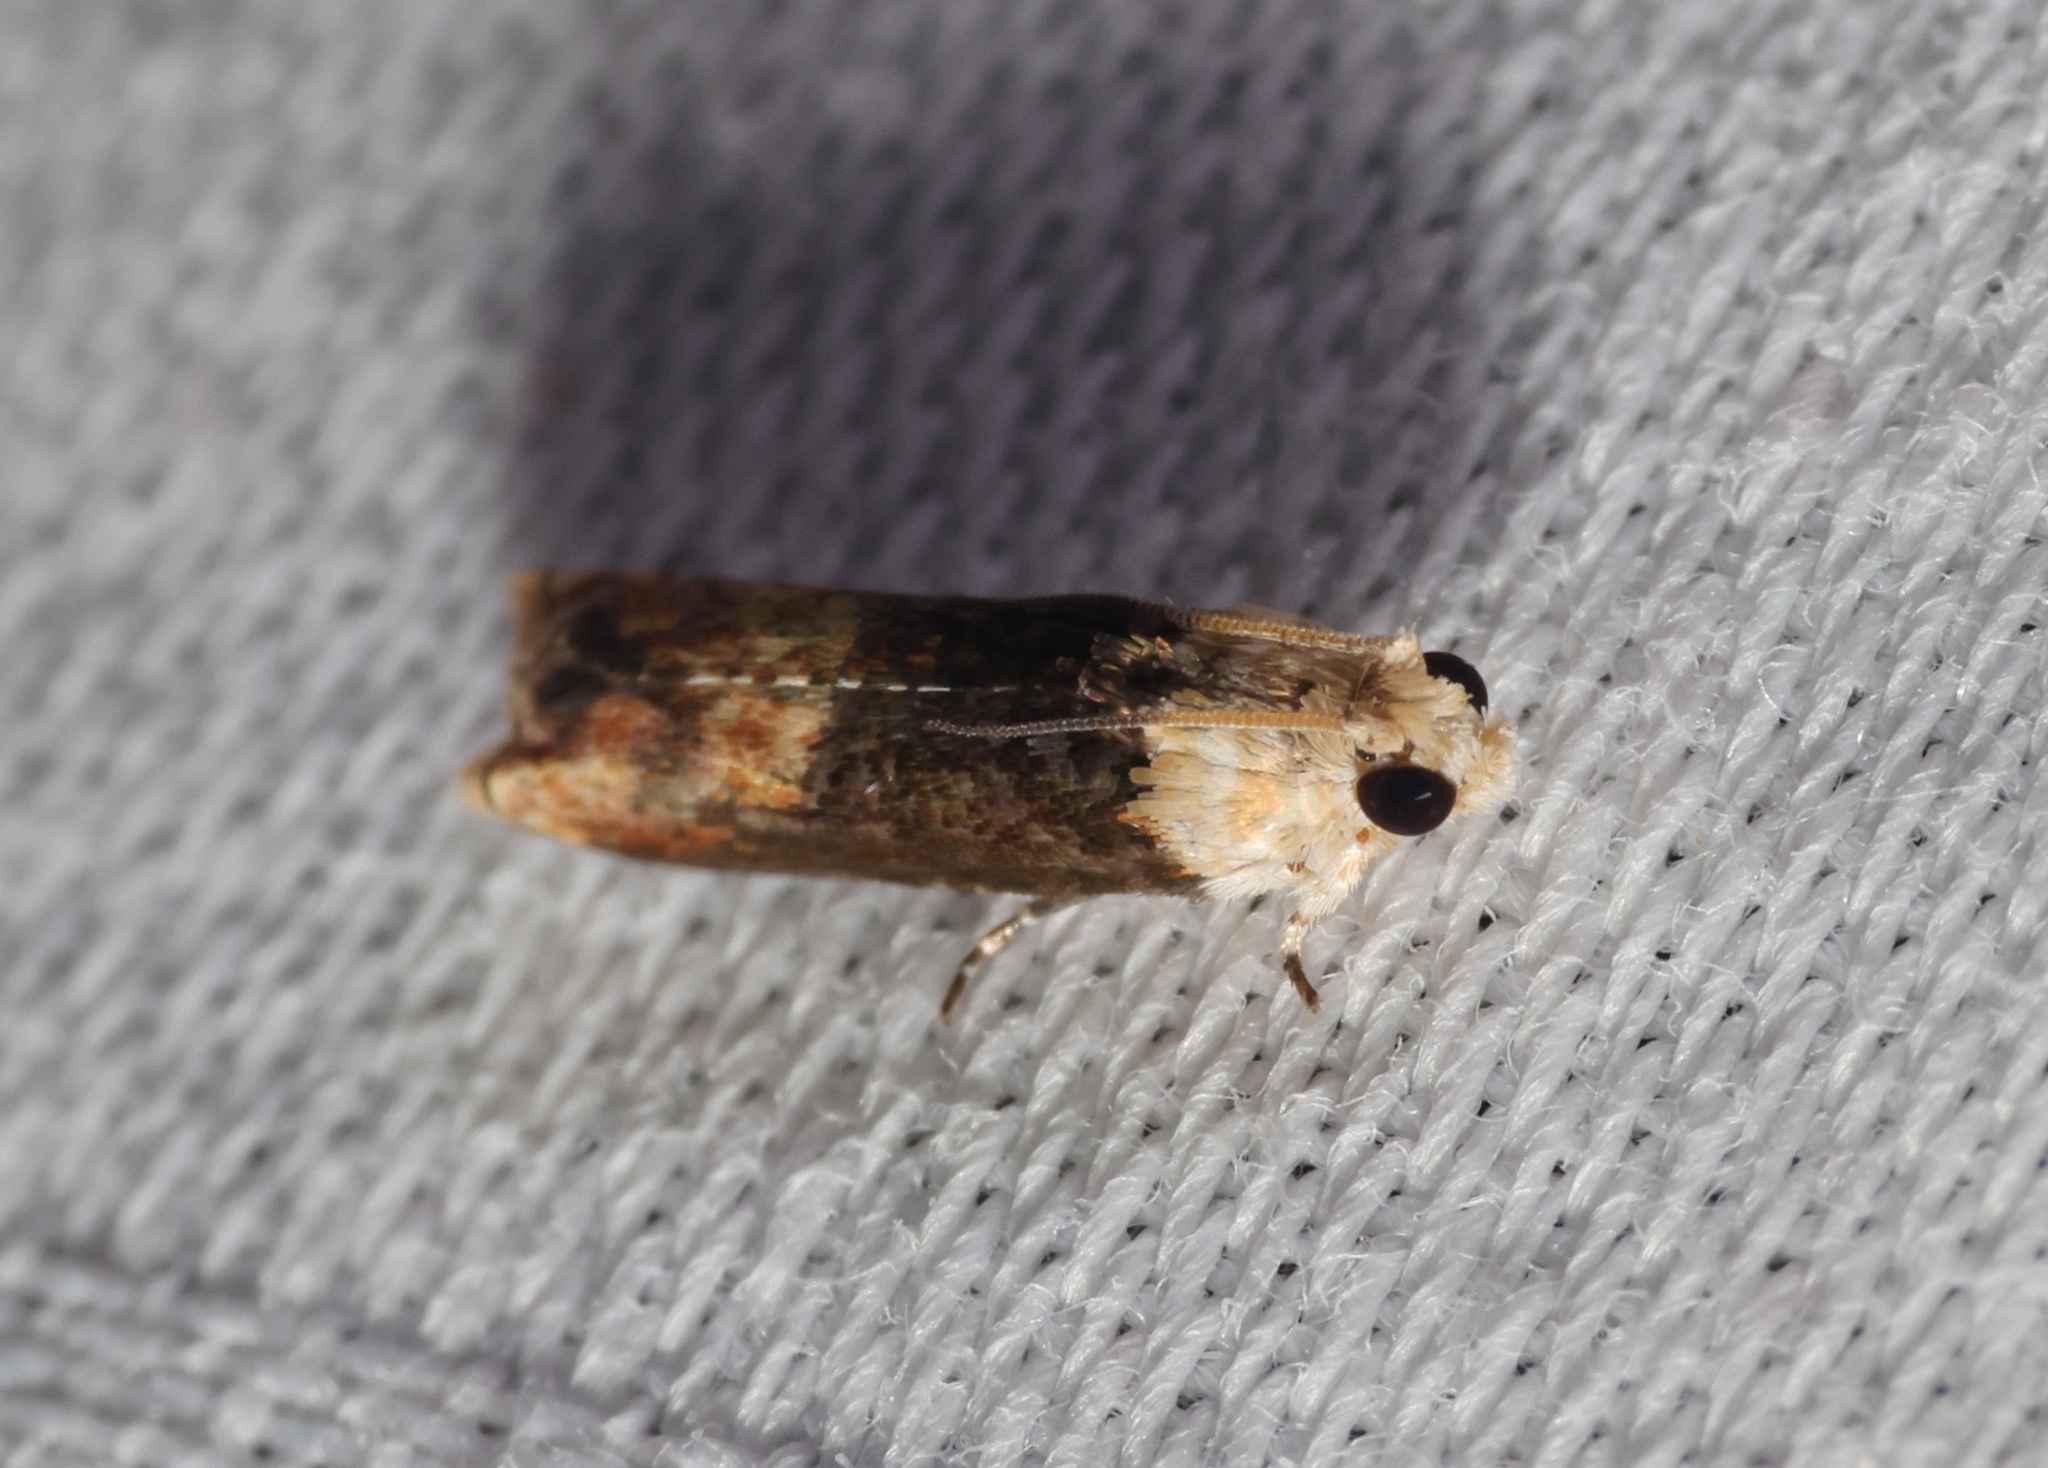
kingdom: Animalia
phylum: Arthropoda
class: Insecta
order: Lepidoptera
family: Tortricidae
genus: Hedya
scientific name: Hedya iophaea
